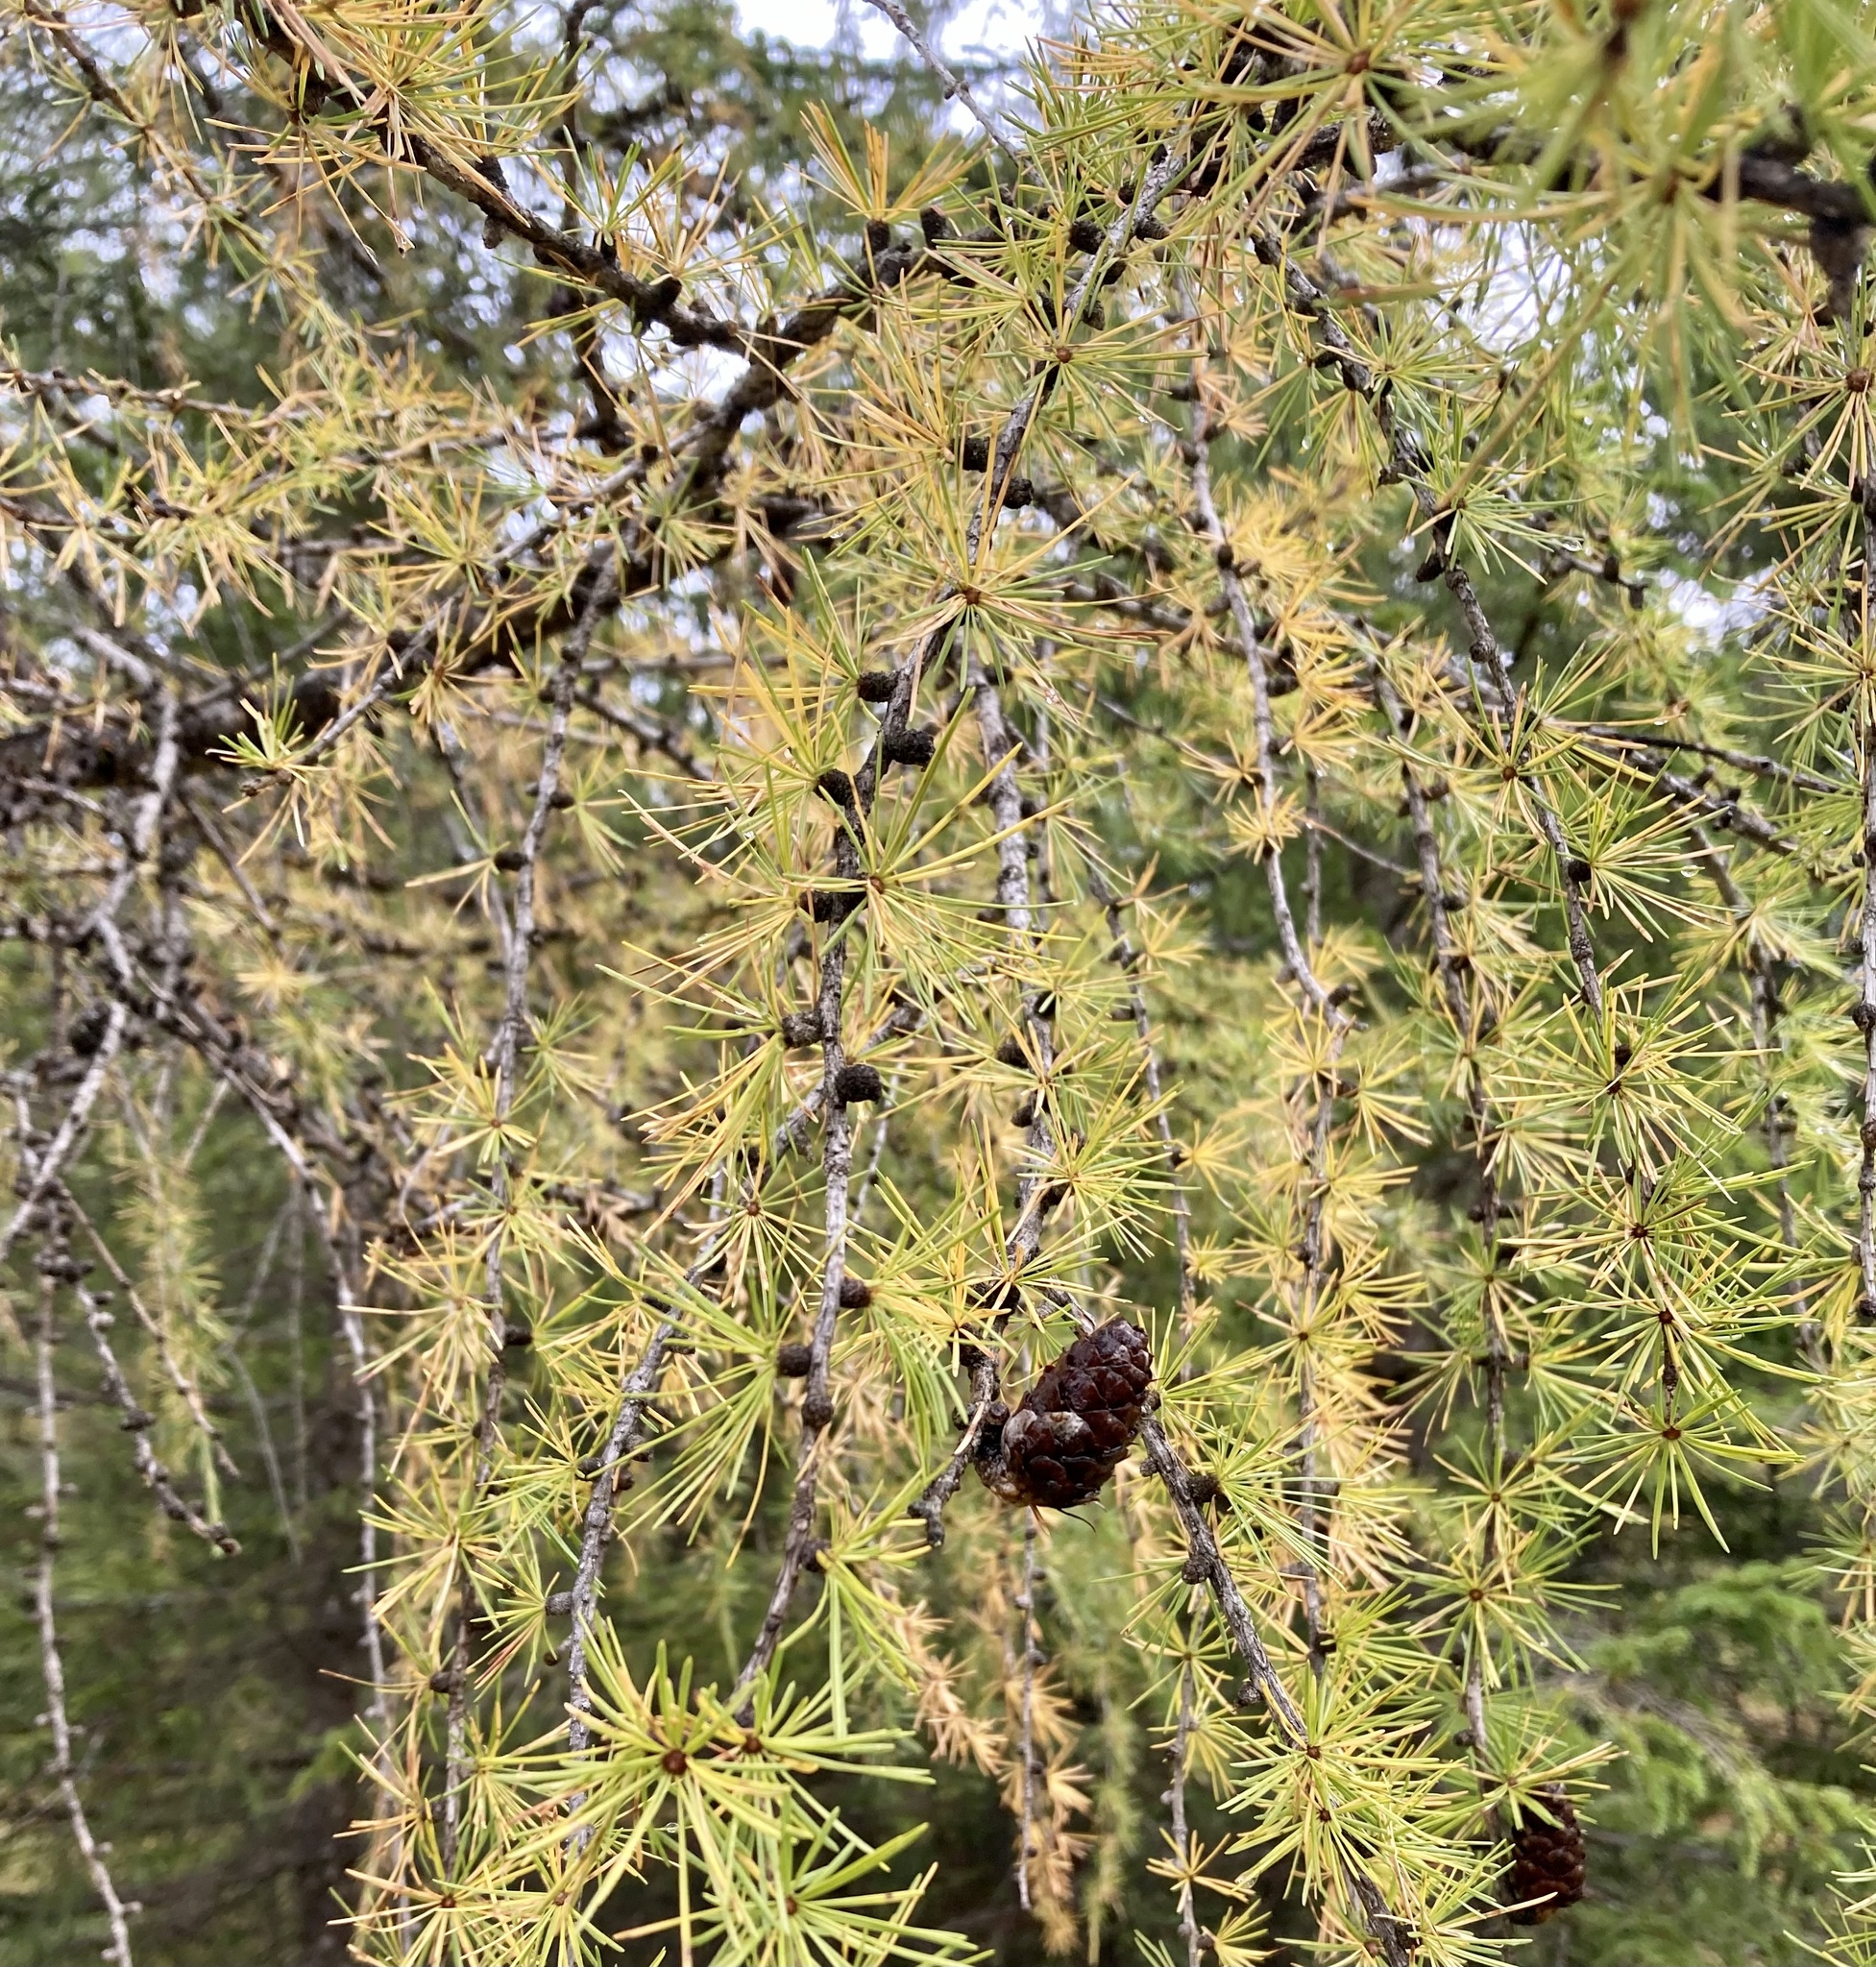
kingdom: Plantae
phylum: Tracheophyta
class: Pinopsida
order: Pinales
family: Pinaceae
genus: Larix
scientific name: Larix decidua
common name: European larch
